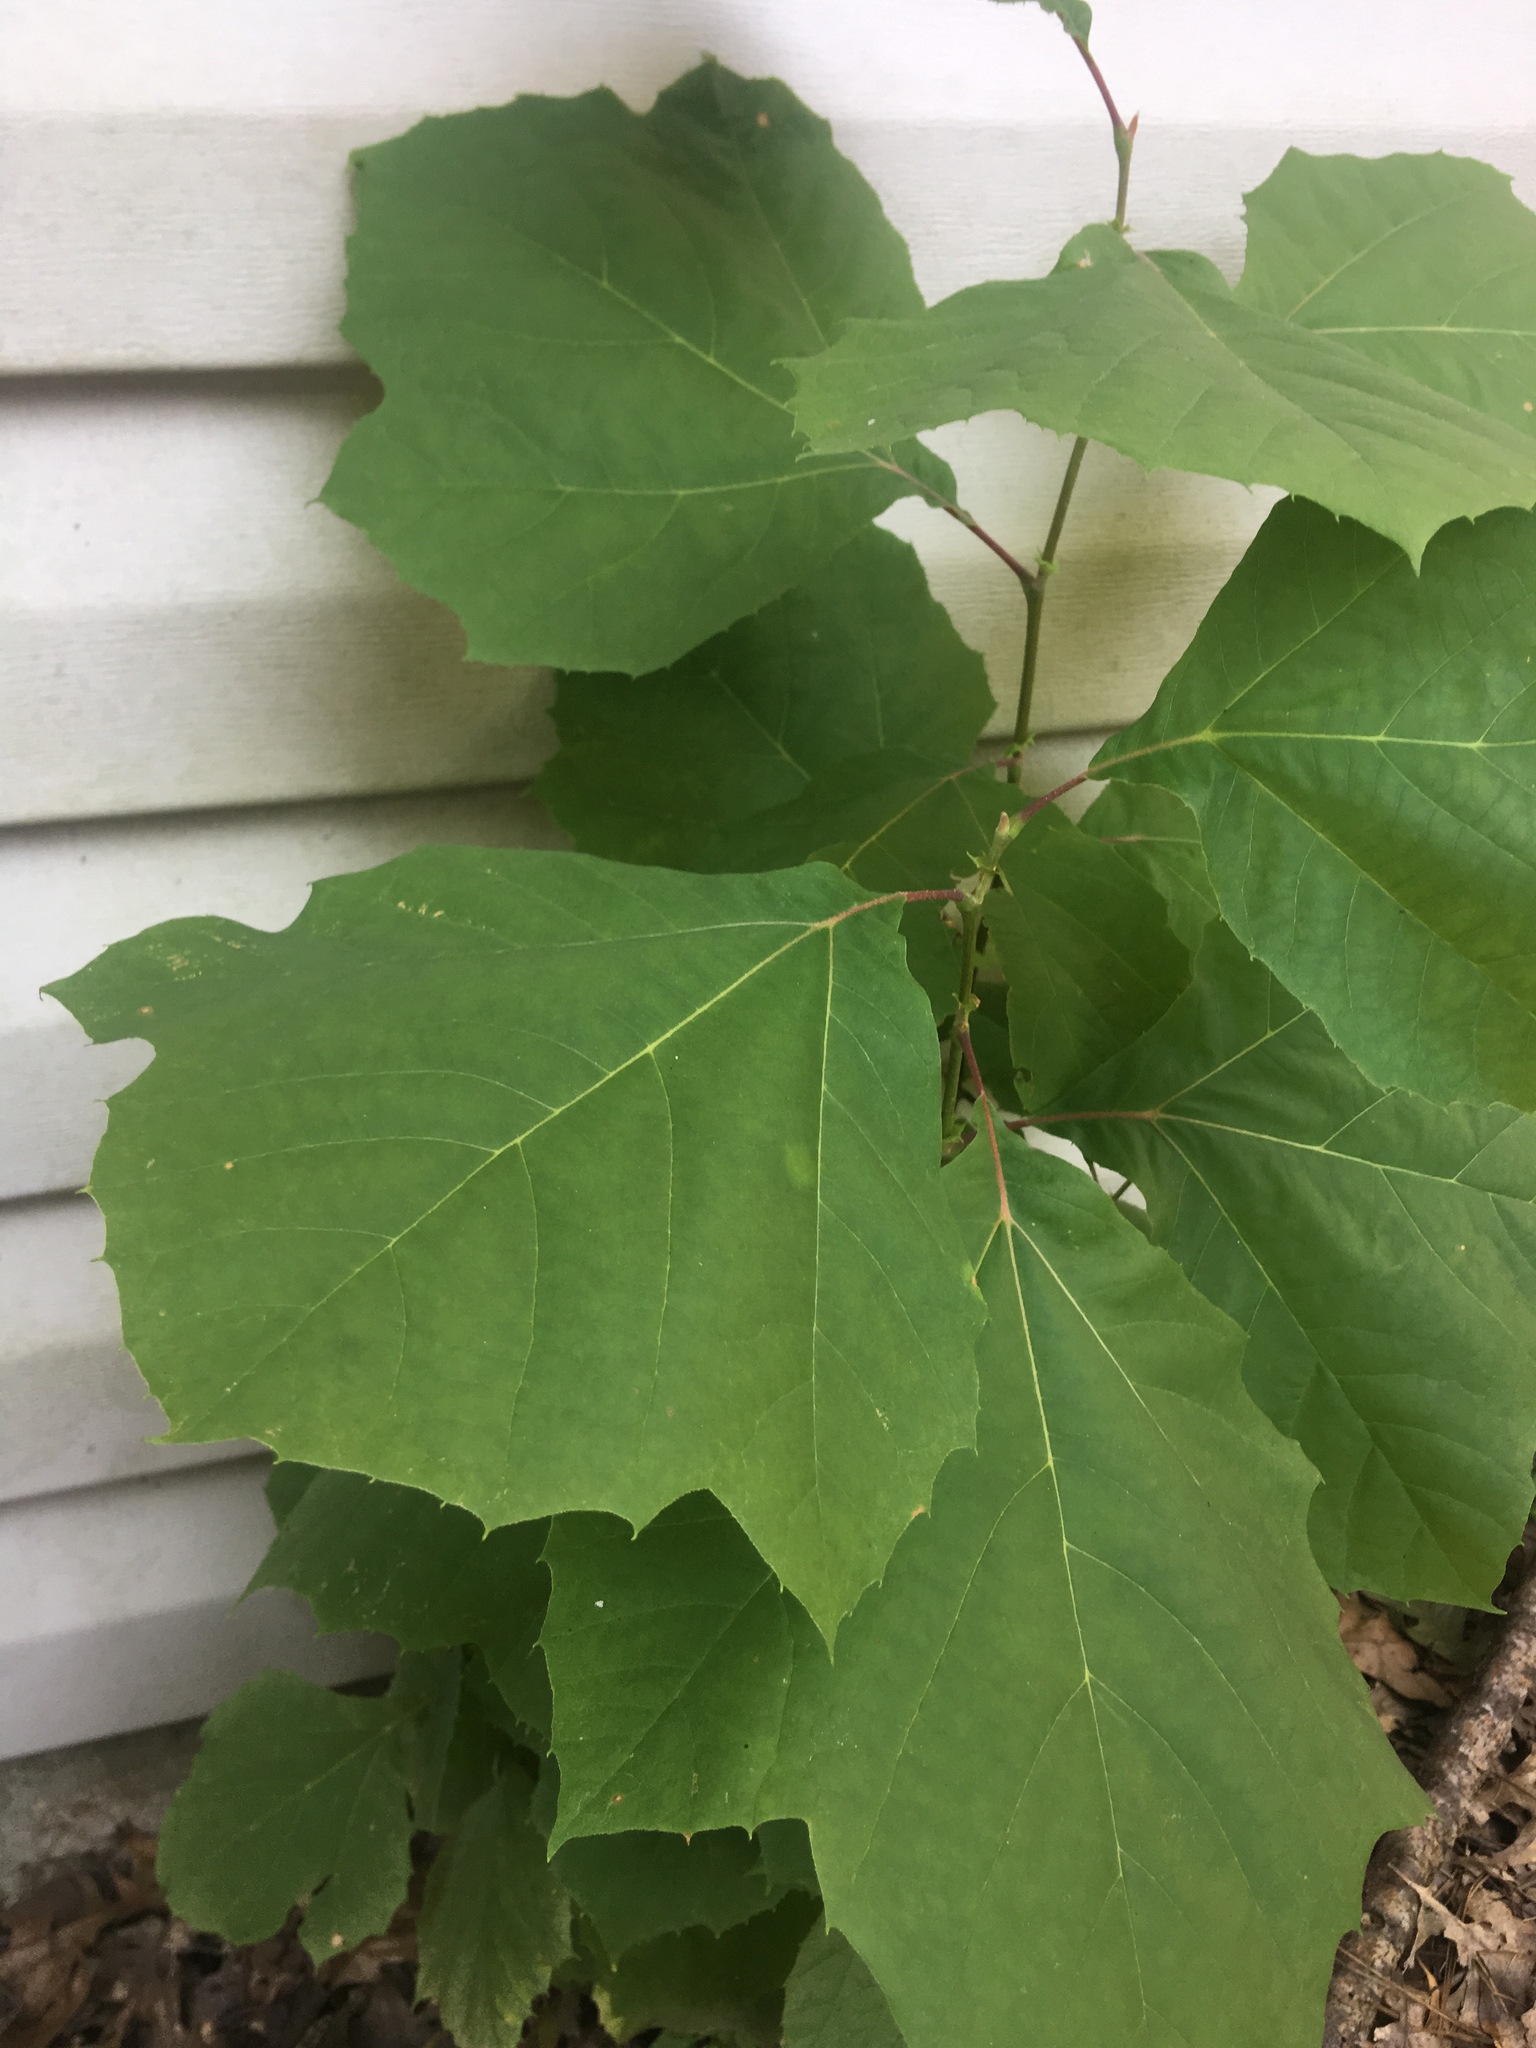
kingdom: Plantae
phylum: Tracheophyta
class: Magnoliopsida
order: Proteales
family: Platanaceae
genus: Platanus
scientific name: Platanus occidentalis
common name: American sycamore
